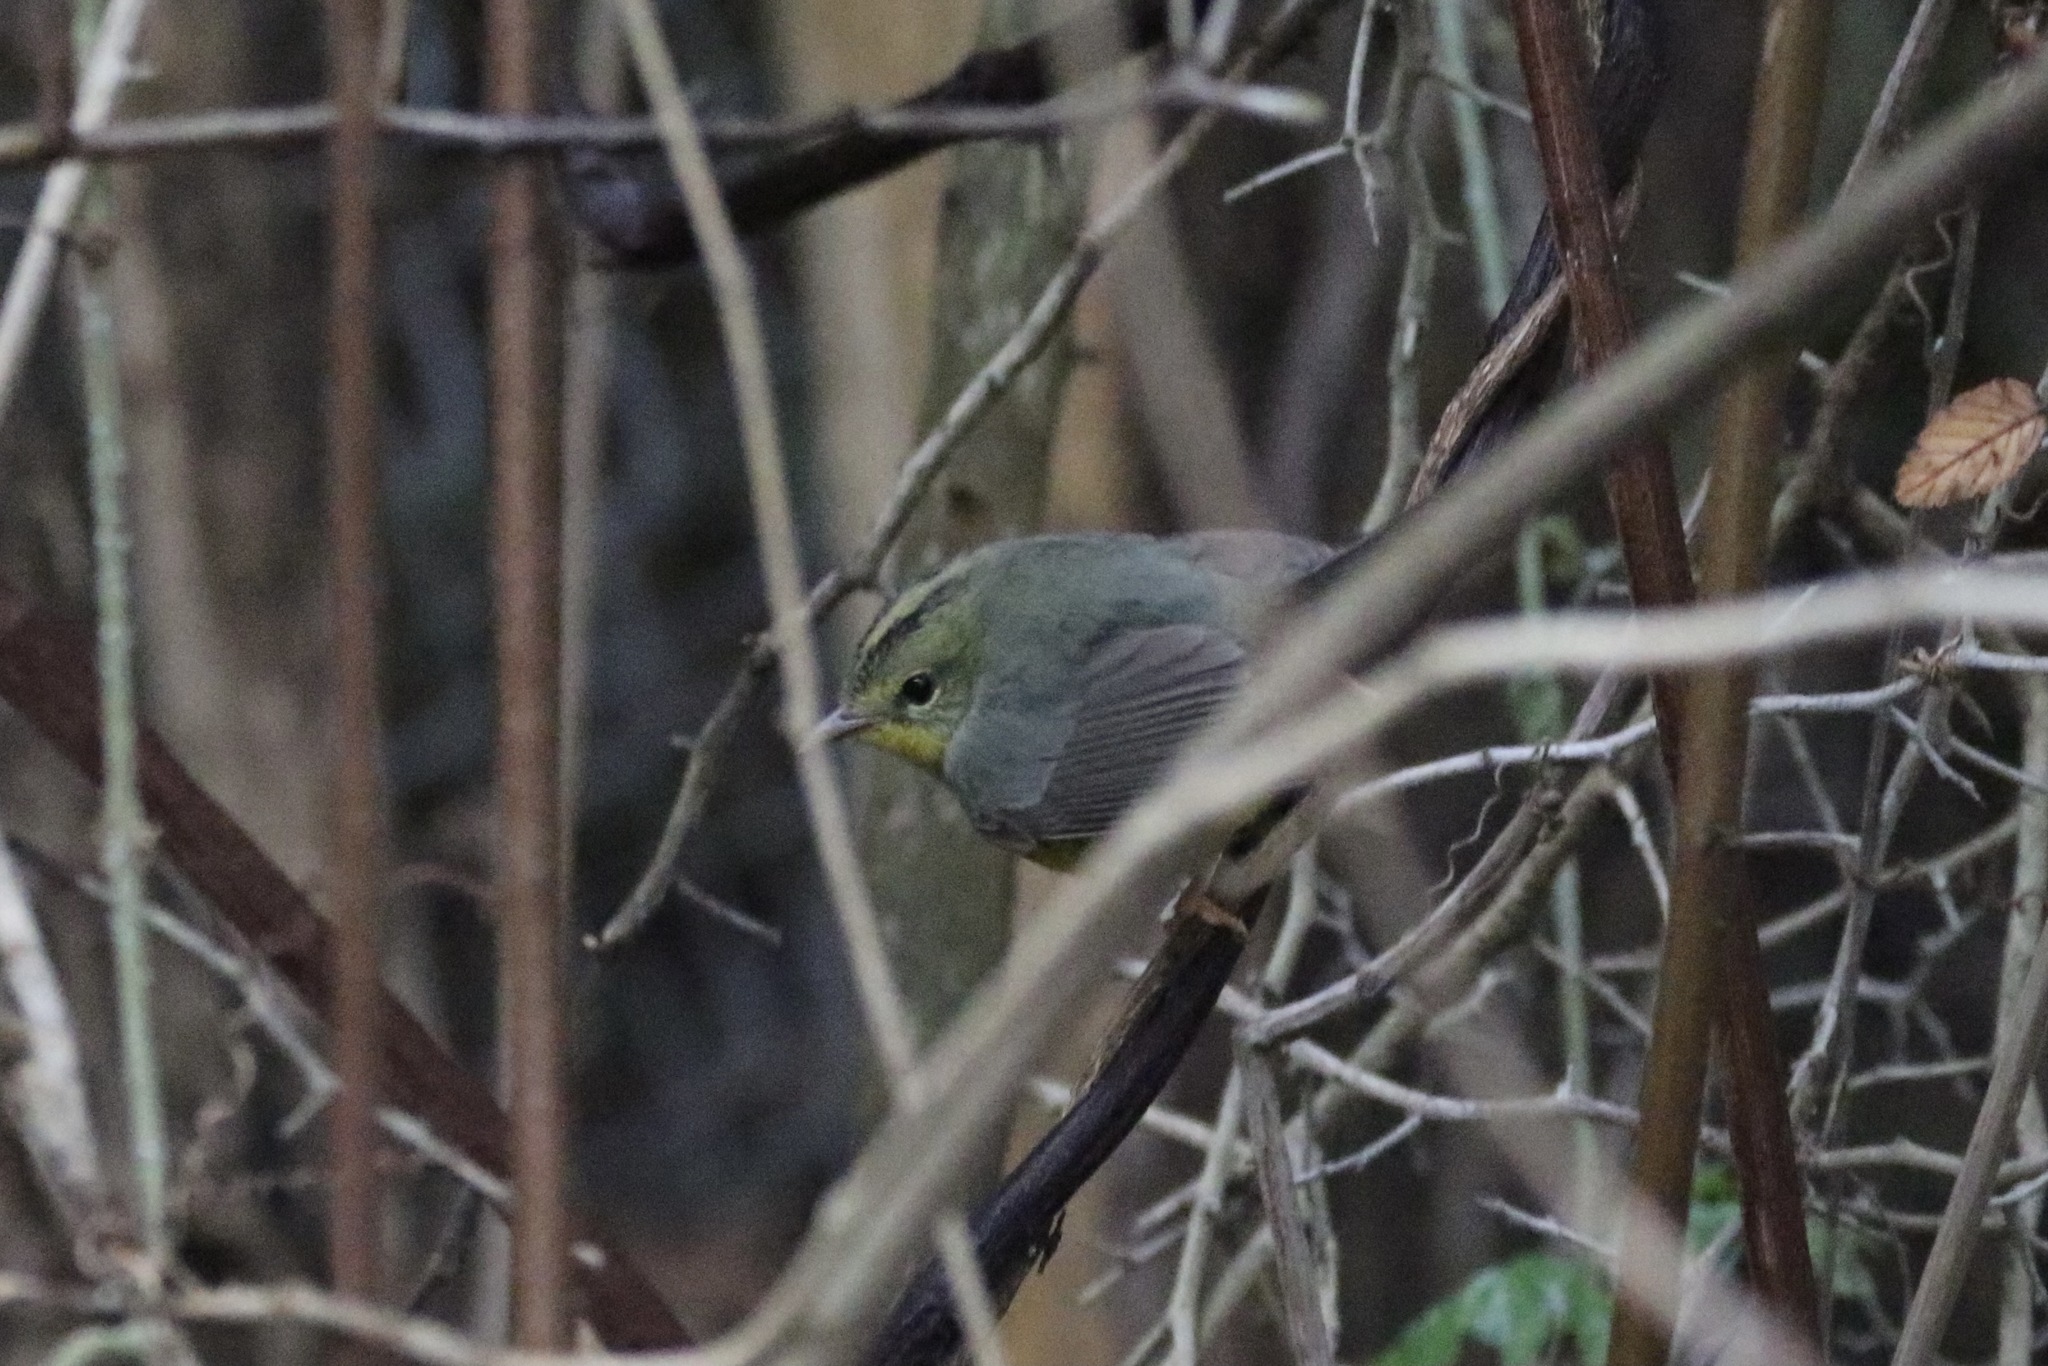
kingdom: Animalia
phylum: Chordata
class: Aves
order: Passeriformes
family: Parulidae
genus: Basileuterus
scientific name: Basileuterus culicivorus
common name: Golden-crowned warbler
